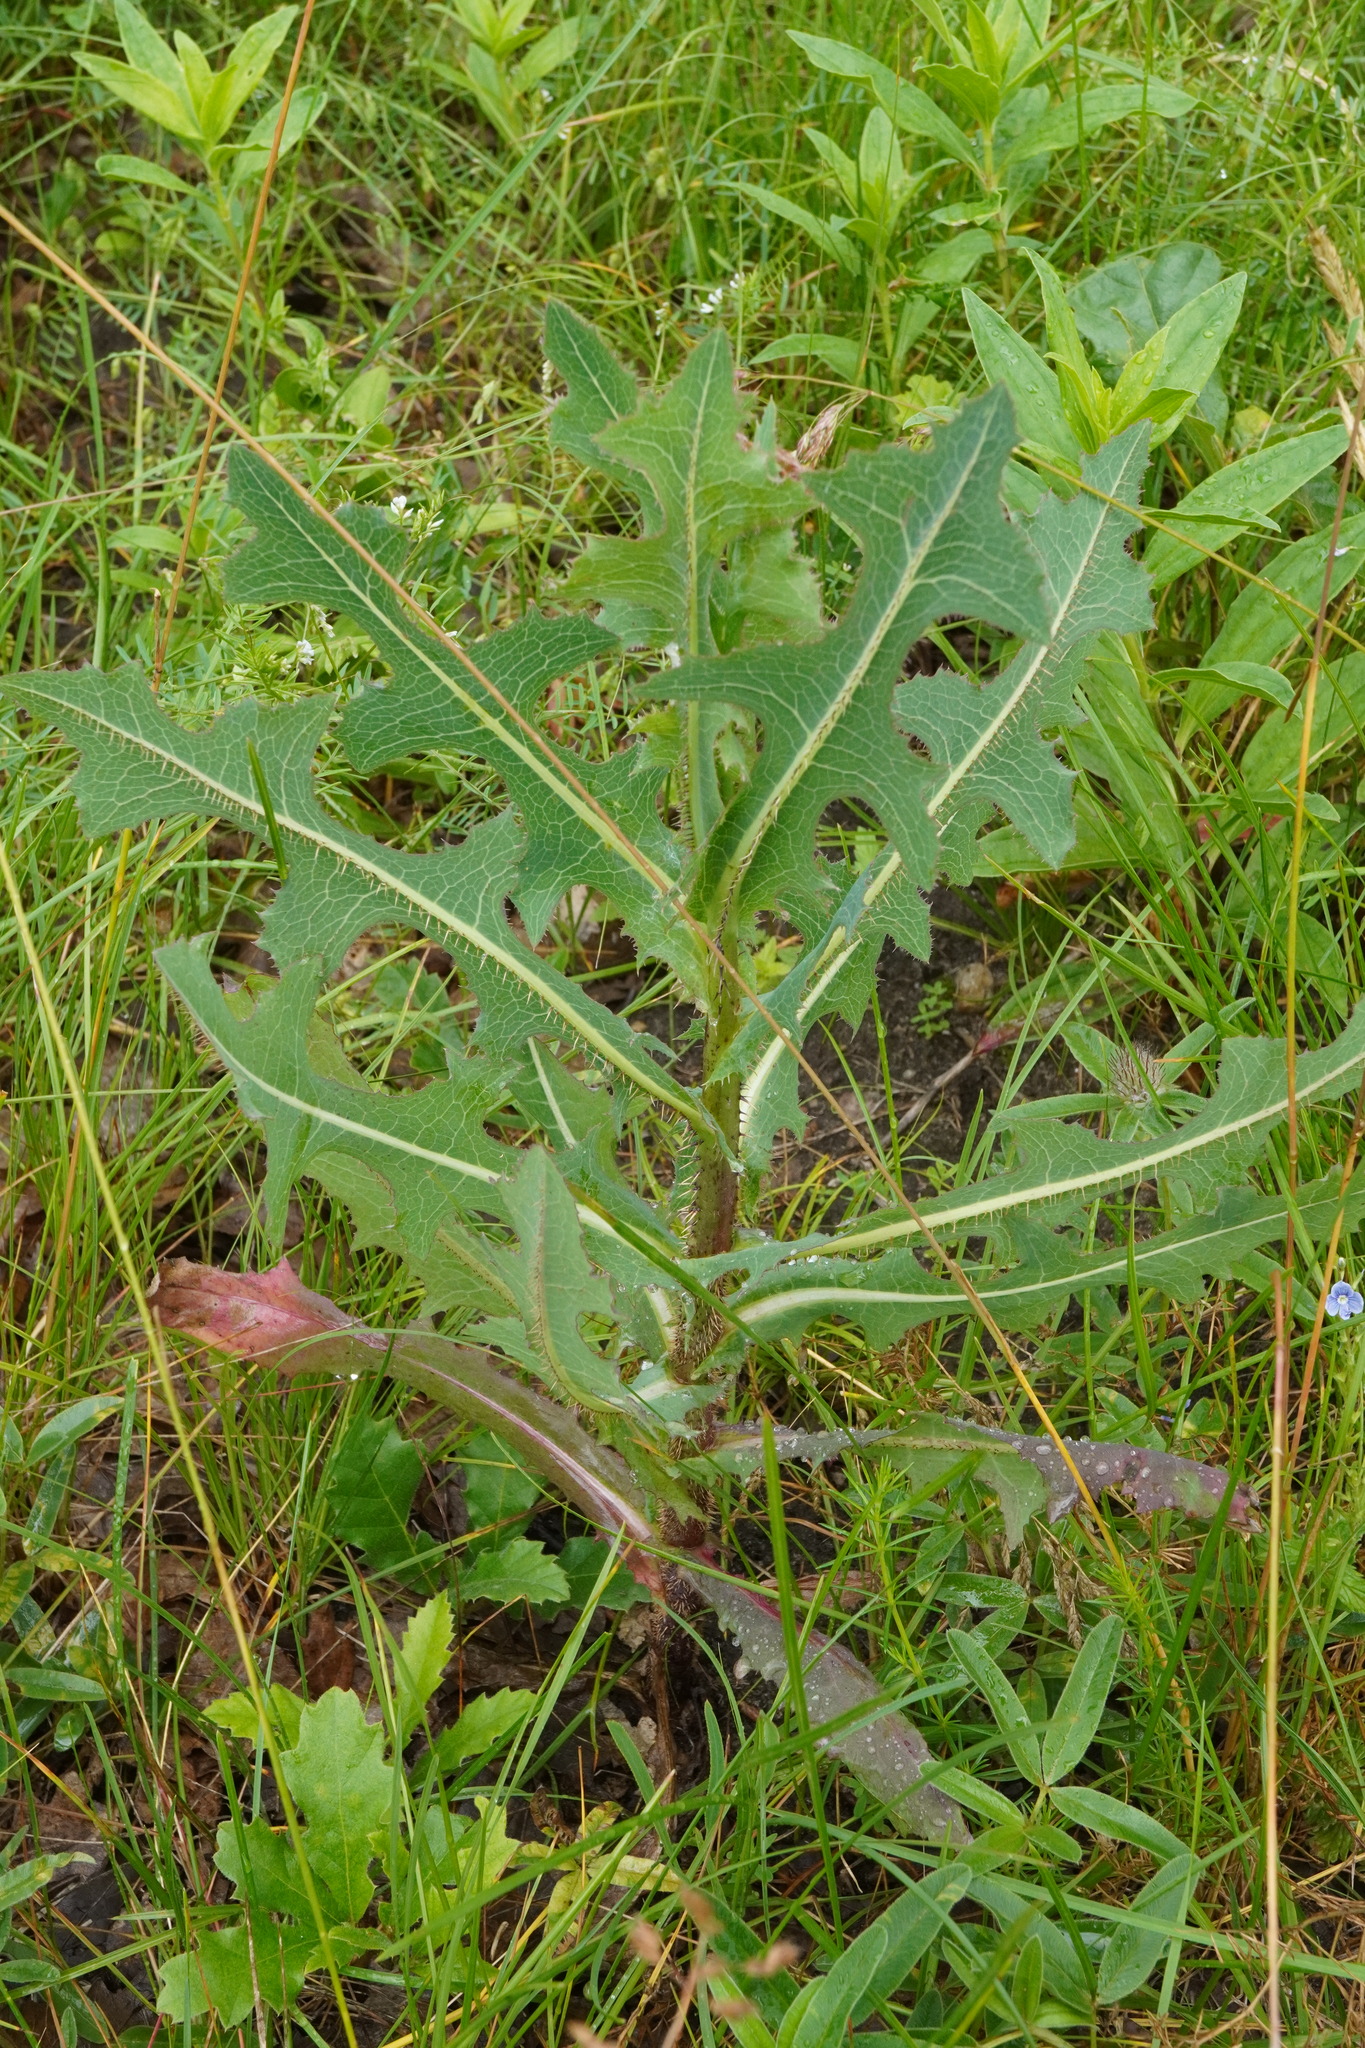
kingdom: Plantae
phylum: Tracheophyta
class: Magnoliopsida
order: Asterales
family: Asteraceae
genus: Lactuca
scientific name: Lactuca serriola
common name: Prickly lettuce
